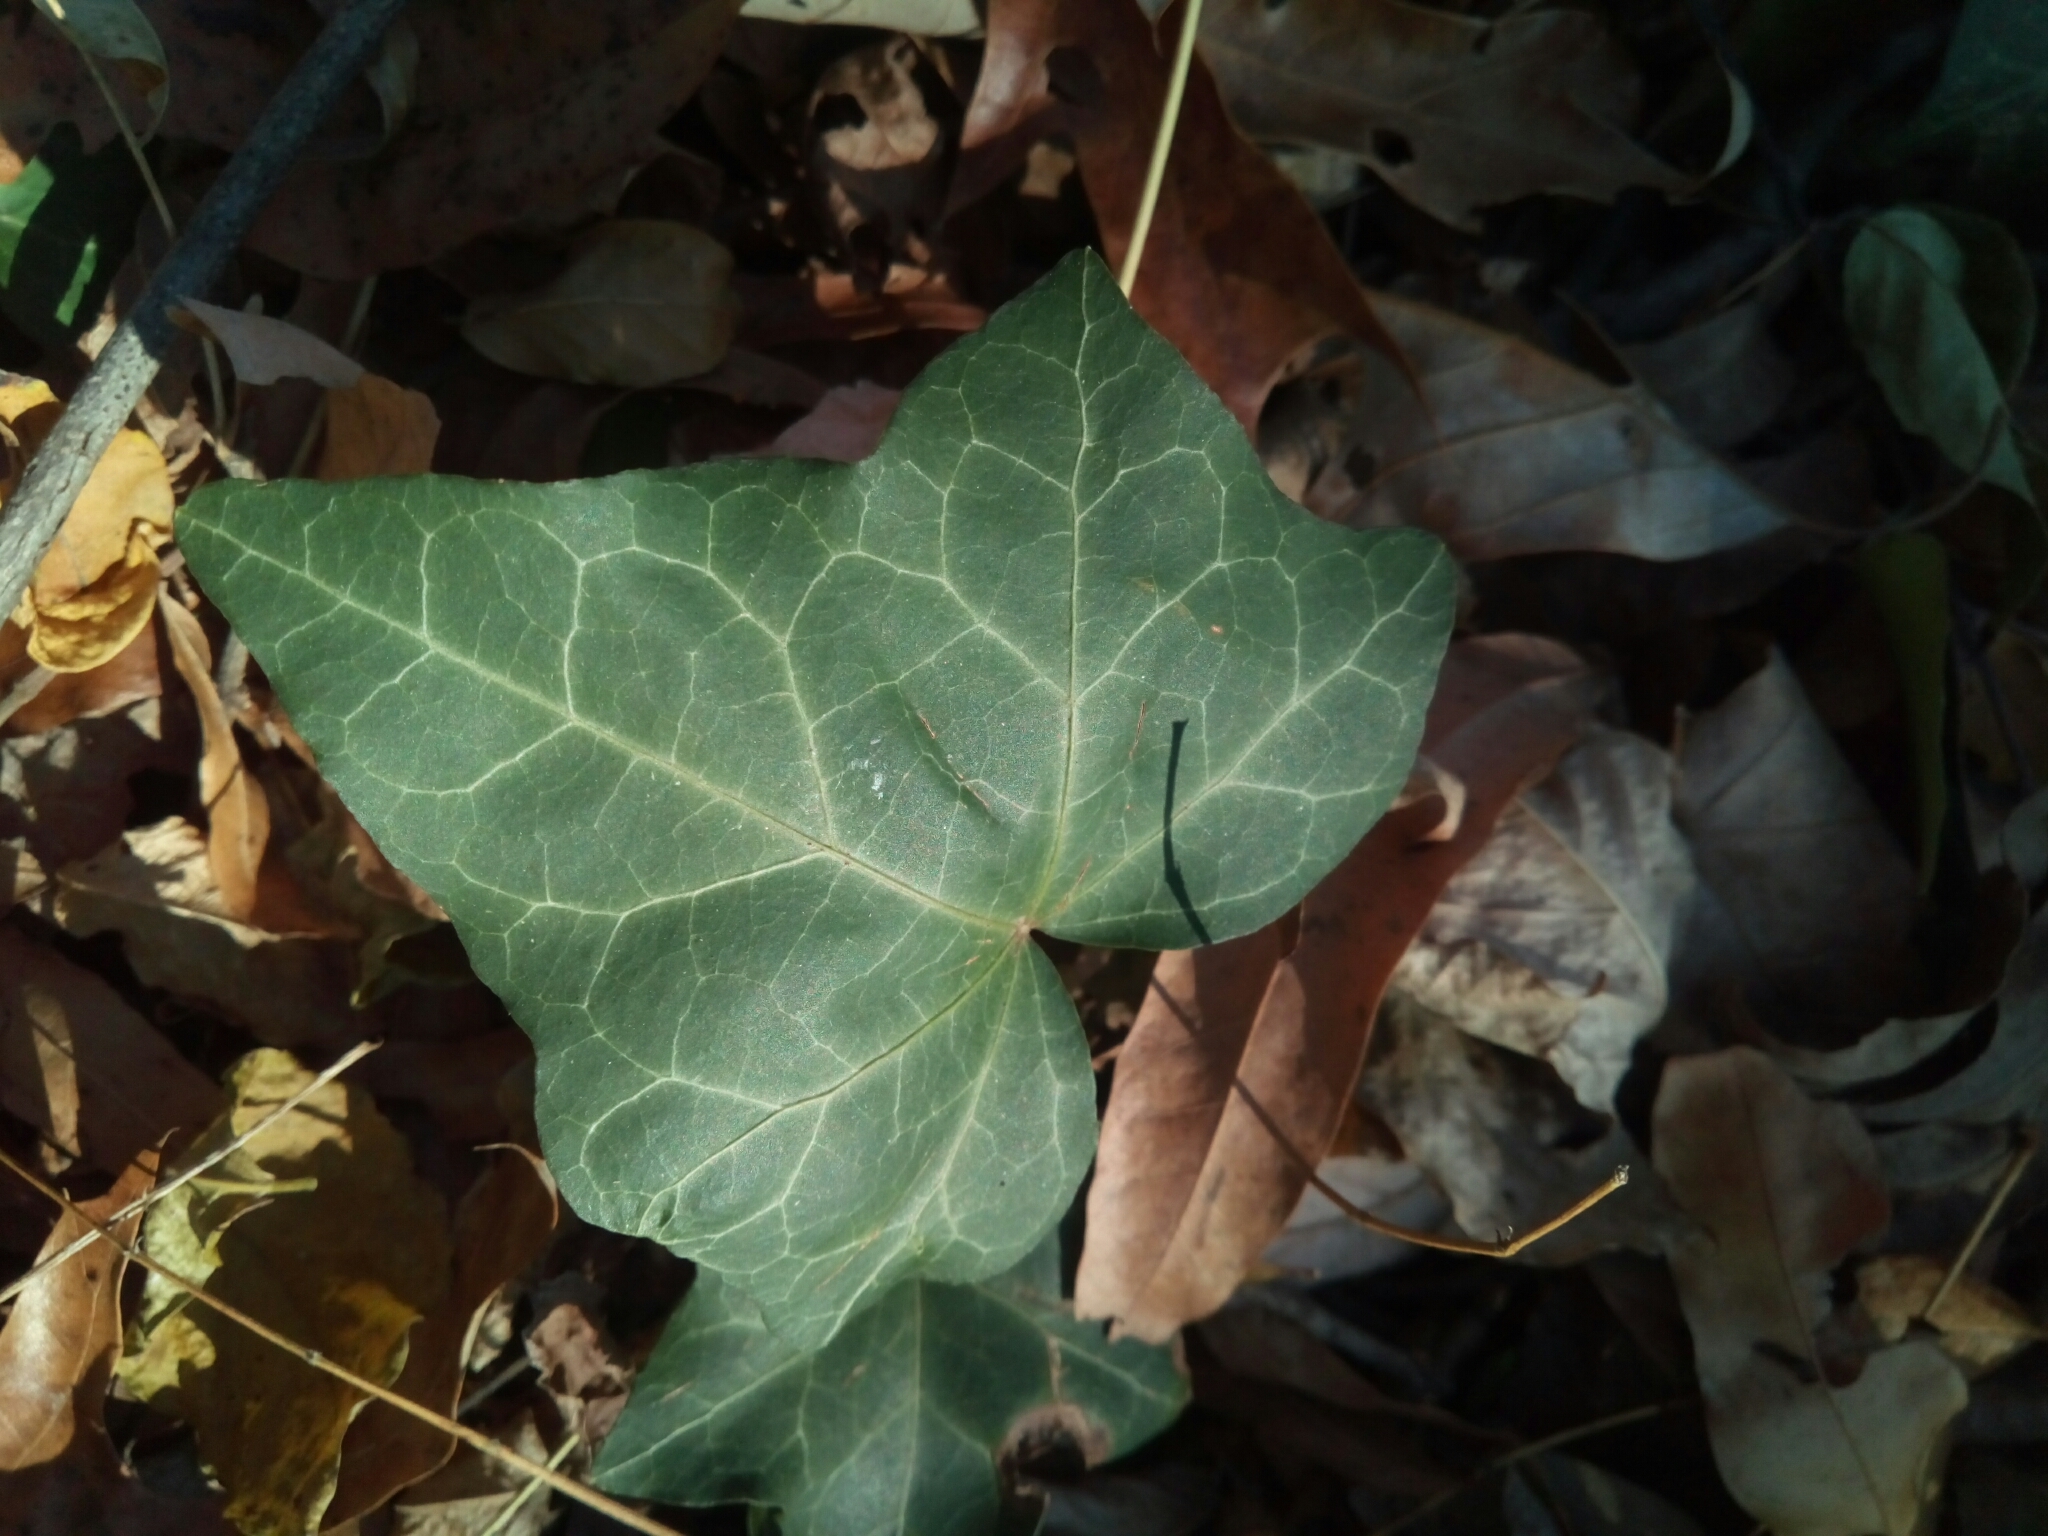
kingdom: Plantae
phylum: Tracheophyta
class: Magnoliopsida
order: Apiales
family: Araliaceae
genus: Hedera
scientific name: Hedera helix
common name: Ivy
